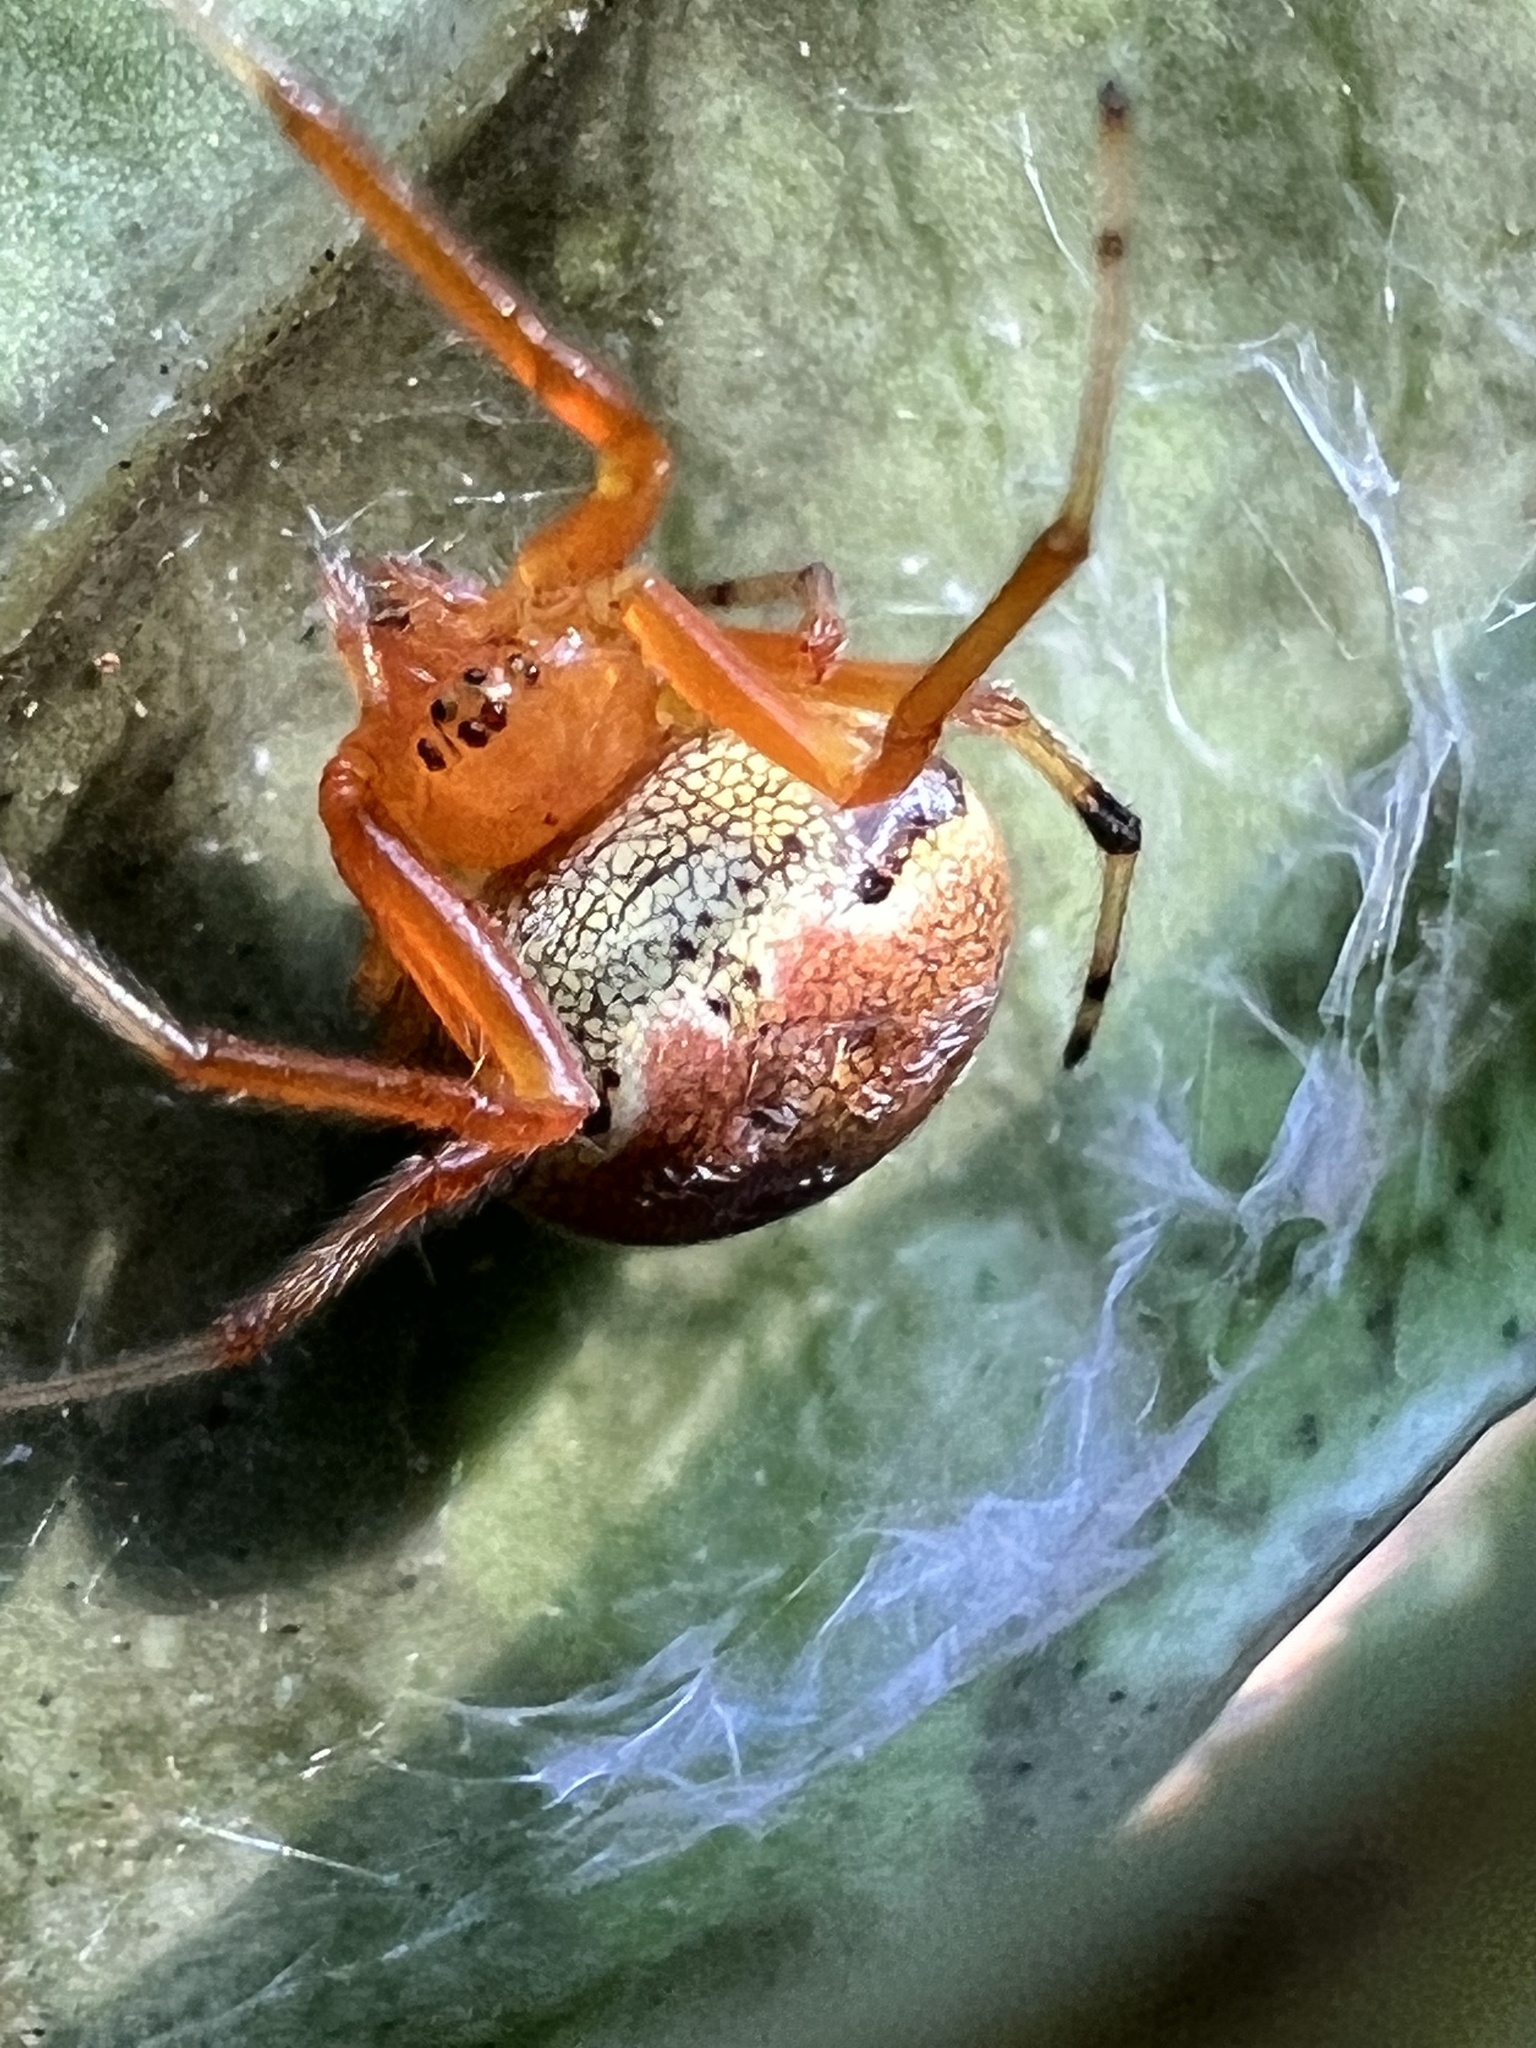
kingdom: Animalia
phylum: Arthropoda
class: Arachnida
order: Araneae
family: Araneidae
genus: Araneus
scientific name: Araneus thaddeus
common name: Lattice orbweaver
